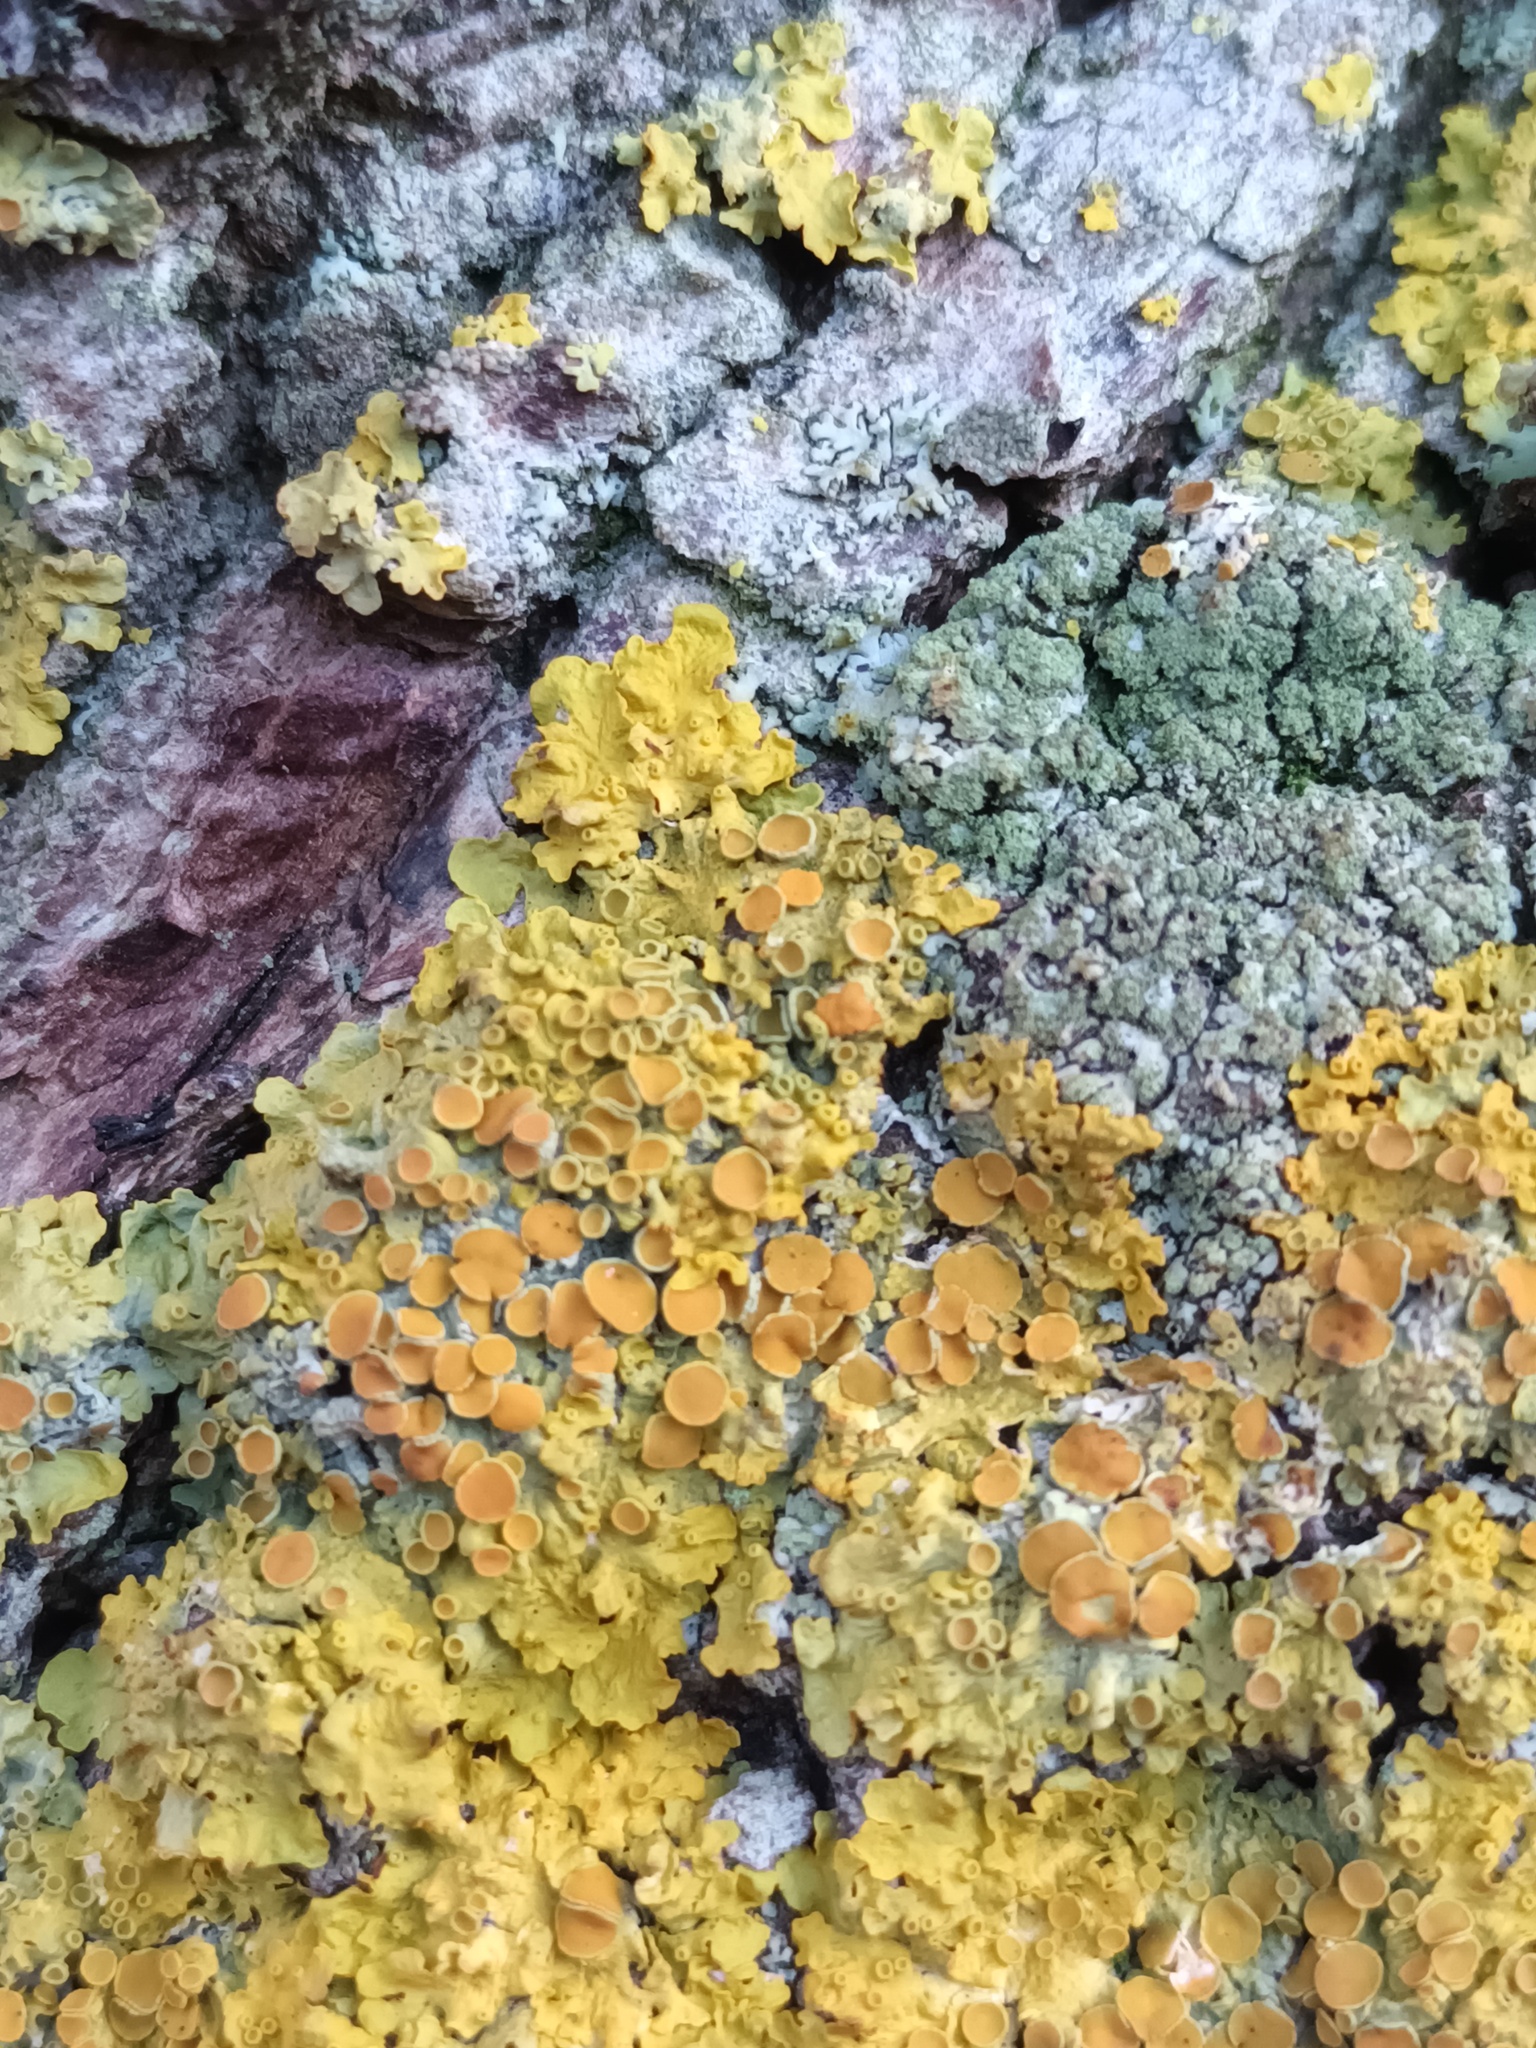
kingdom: Fungi
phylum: Ascomycota
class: Lecanoromycetes
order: Teloschistales
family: Teloschistaceae
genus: Xanthoria
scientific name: Xanthoria parietina
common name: Common orange lichen
